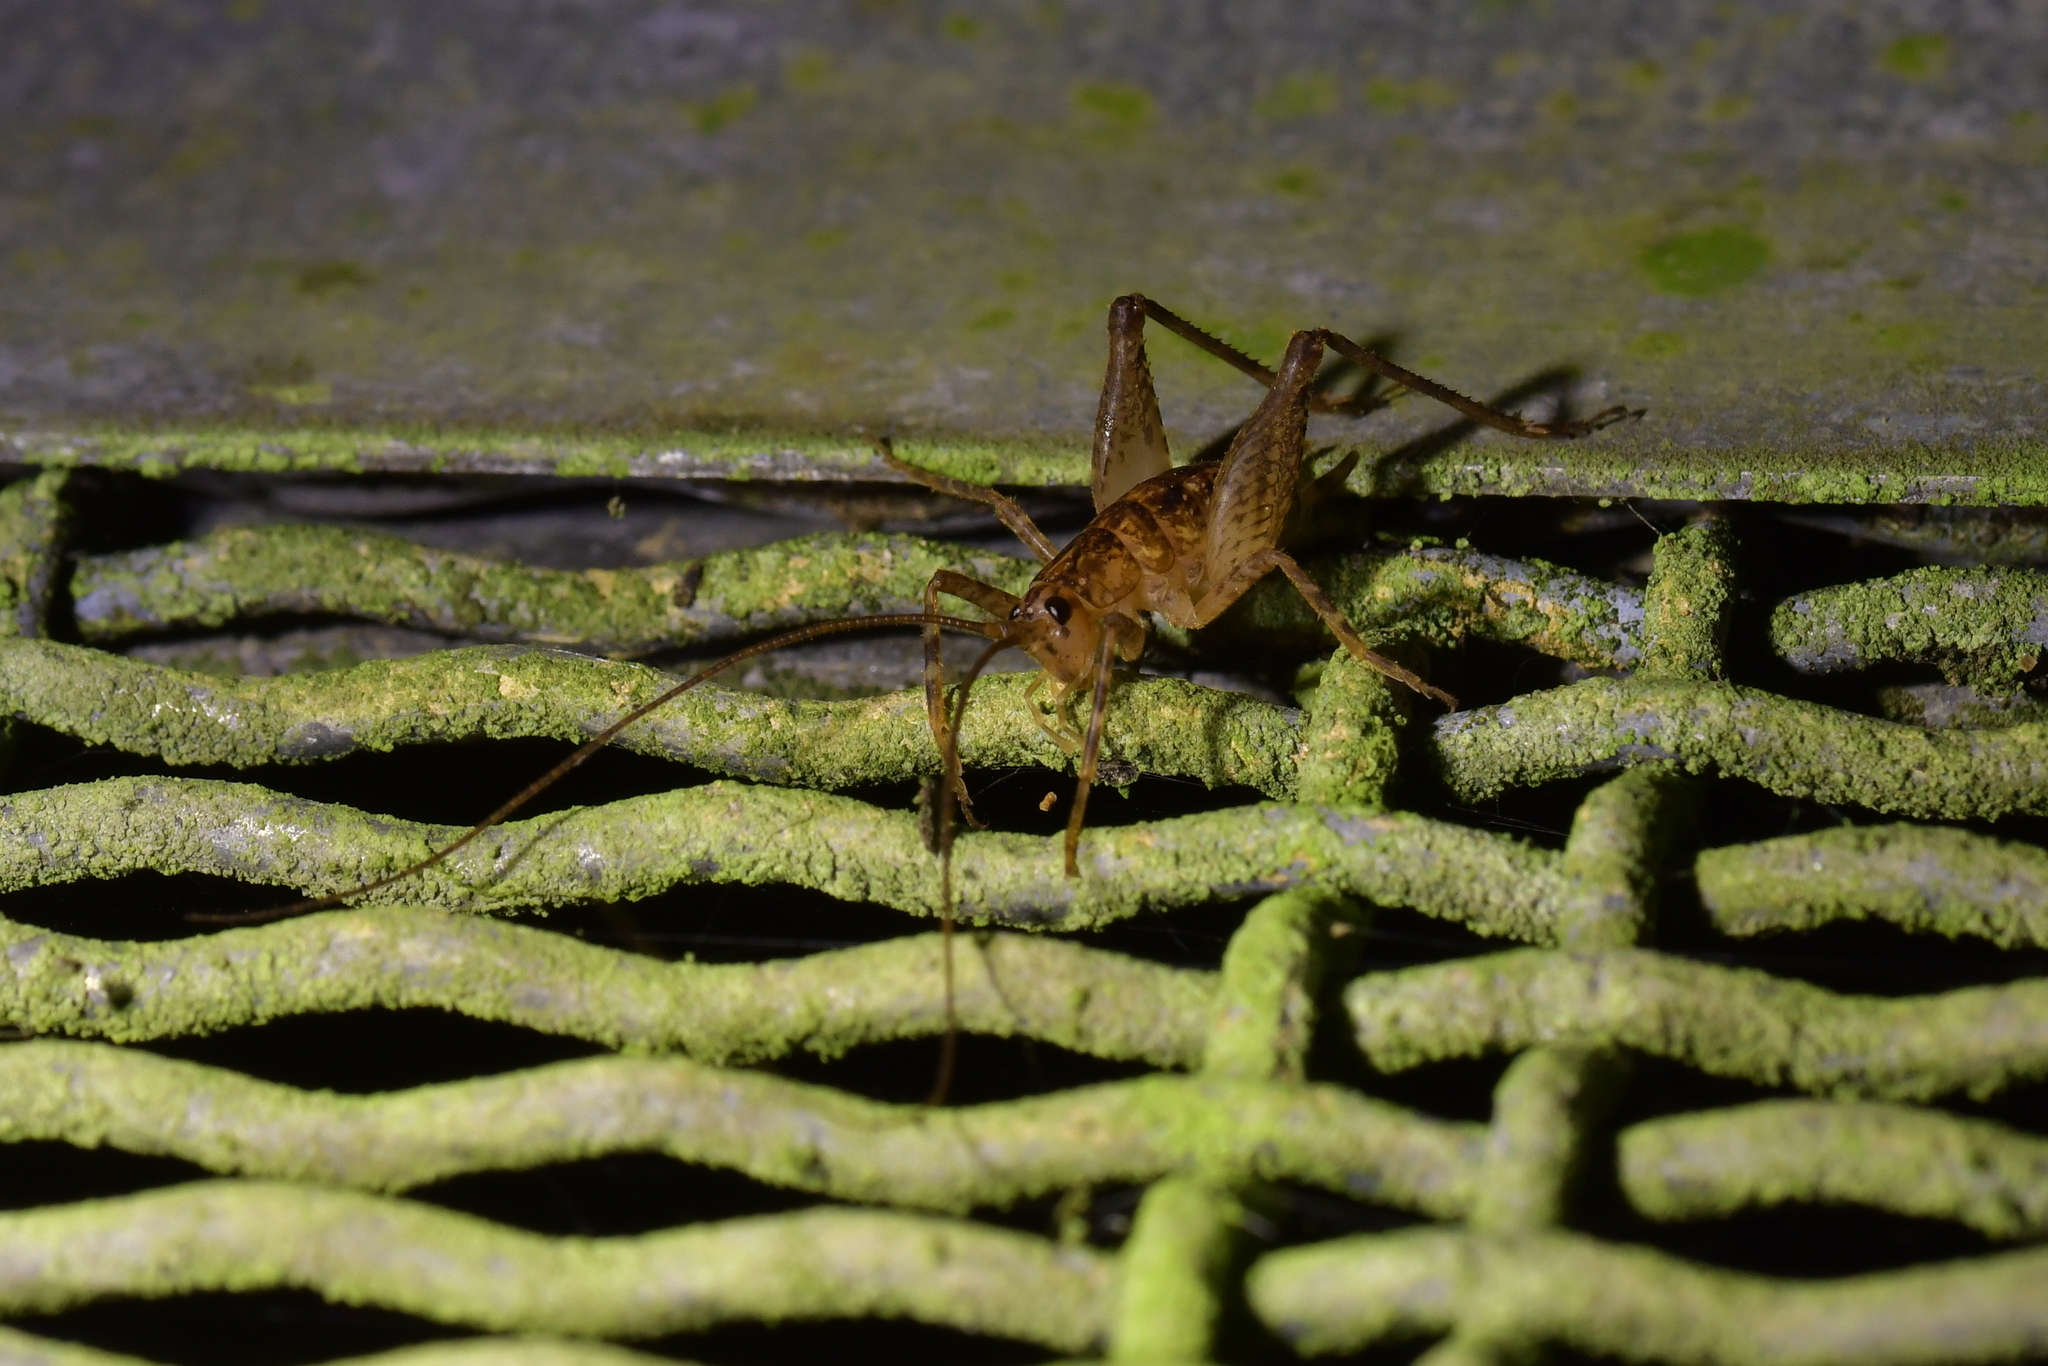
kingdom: Animalia
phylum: Arthropoda
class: Insecta
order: Orthoptera
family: Rhaphidophoridae
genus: Talitropsis
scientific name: Talitropsis sedilloti
